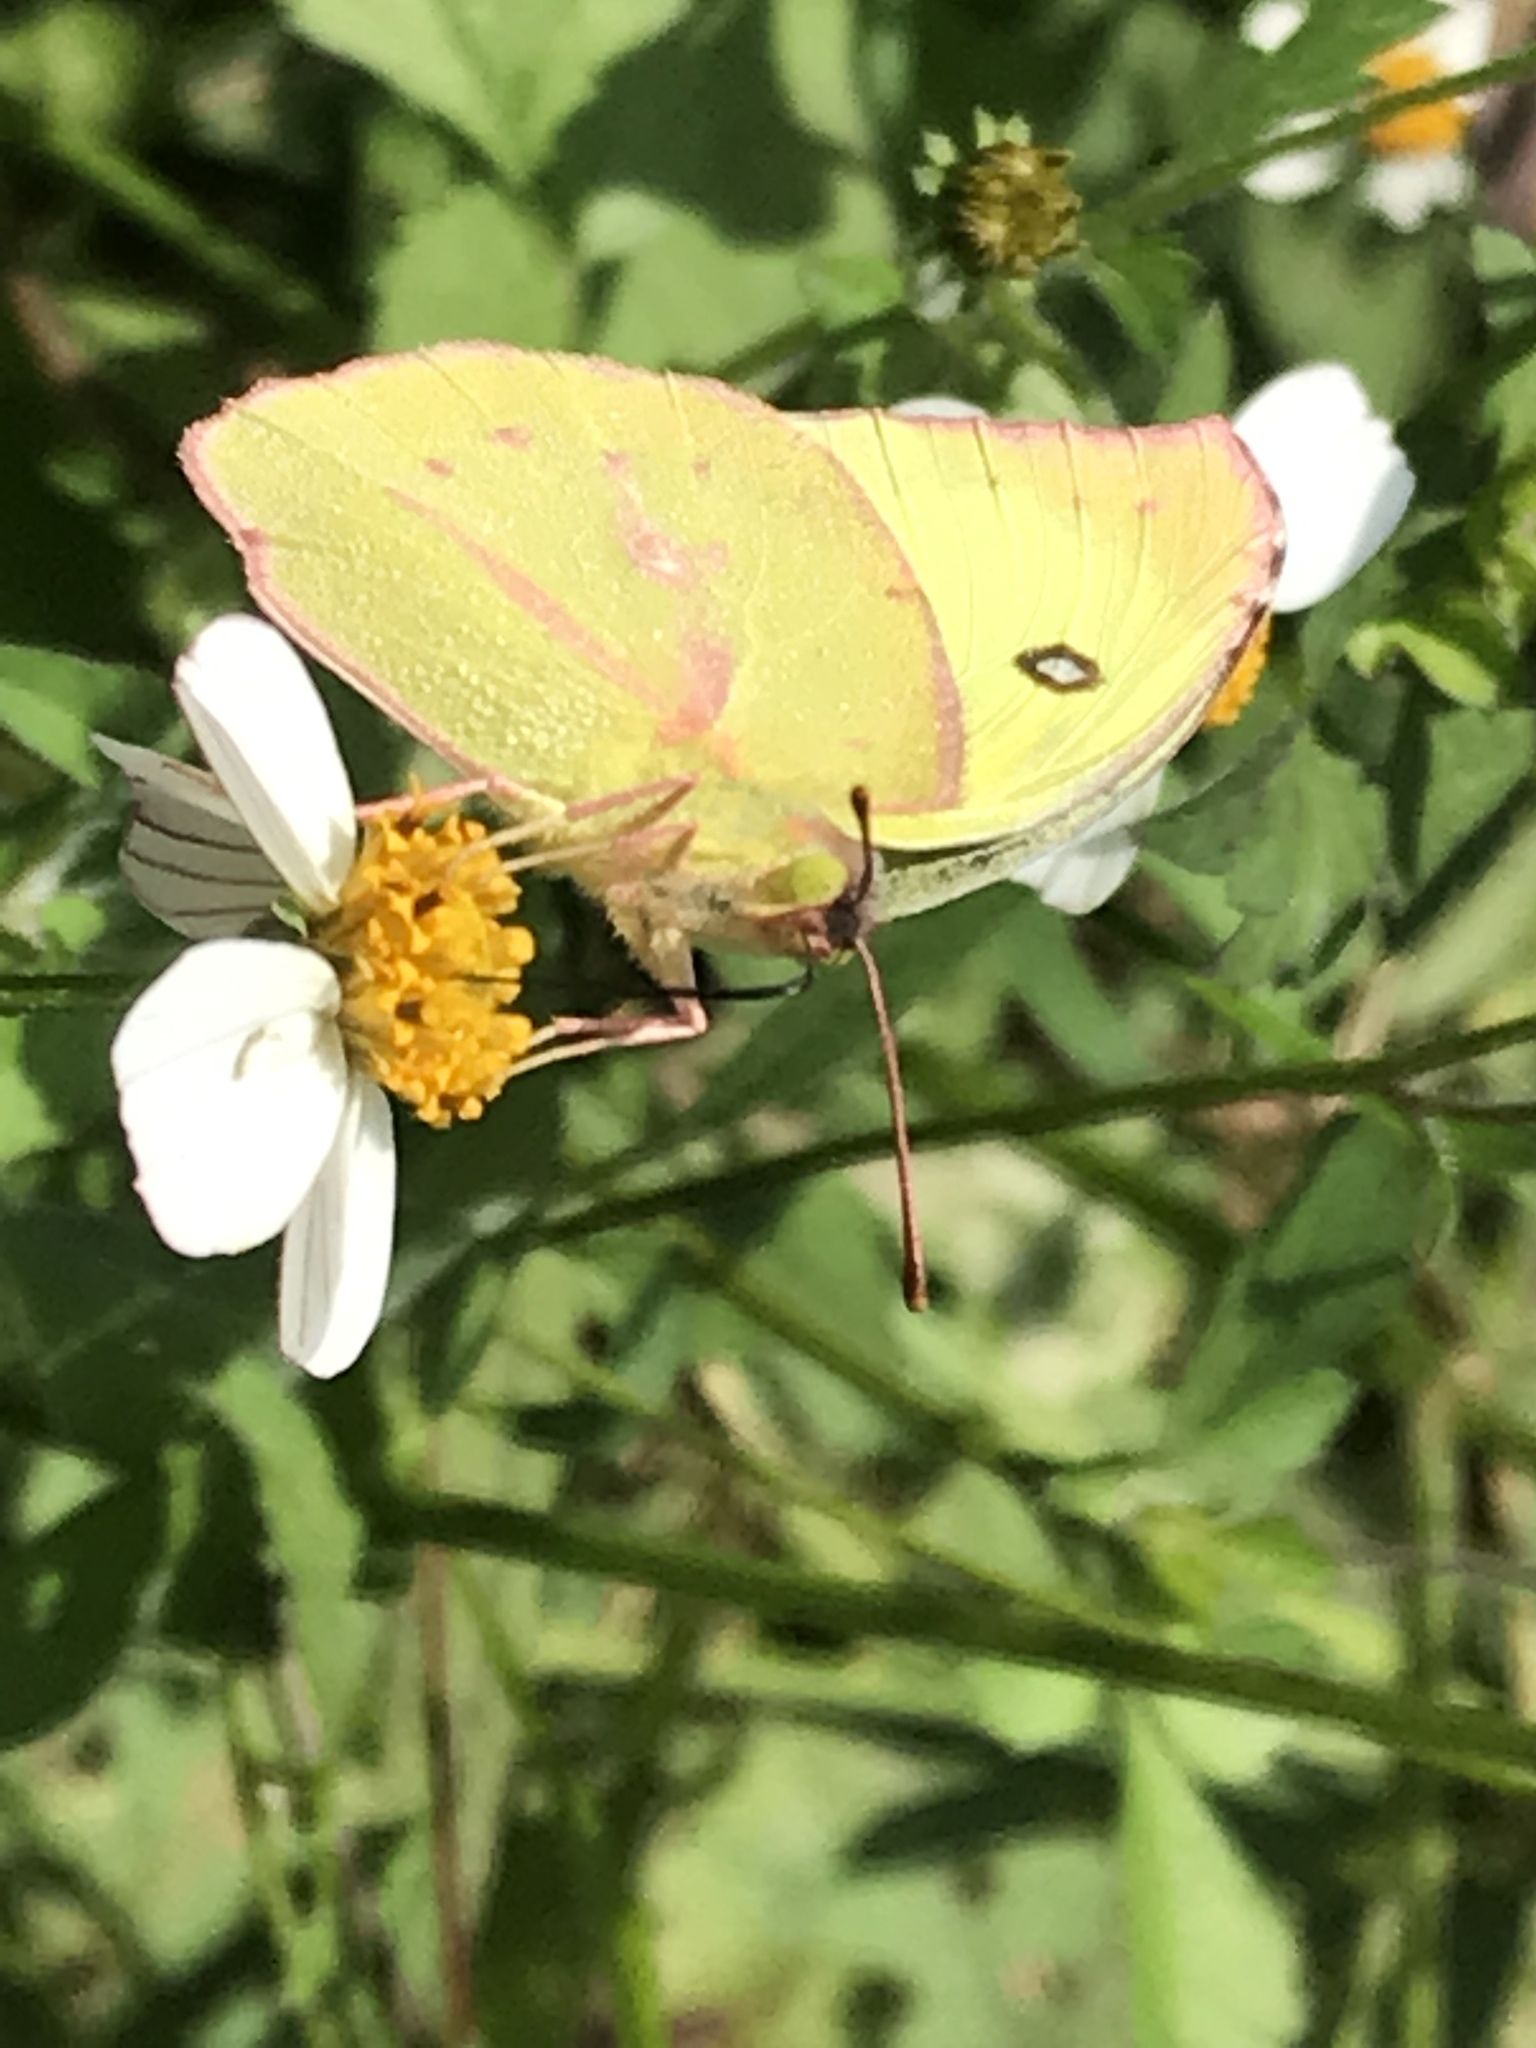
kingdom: Animalia
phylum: Arthropoda
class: Insecta
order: Lepidoptera
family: Pieridae
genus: Zerene
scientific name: Zerene cesonia
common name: Southern dogface
